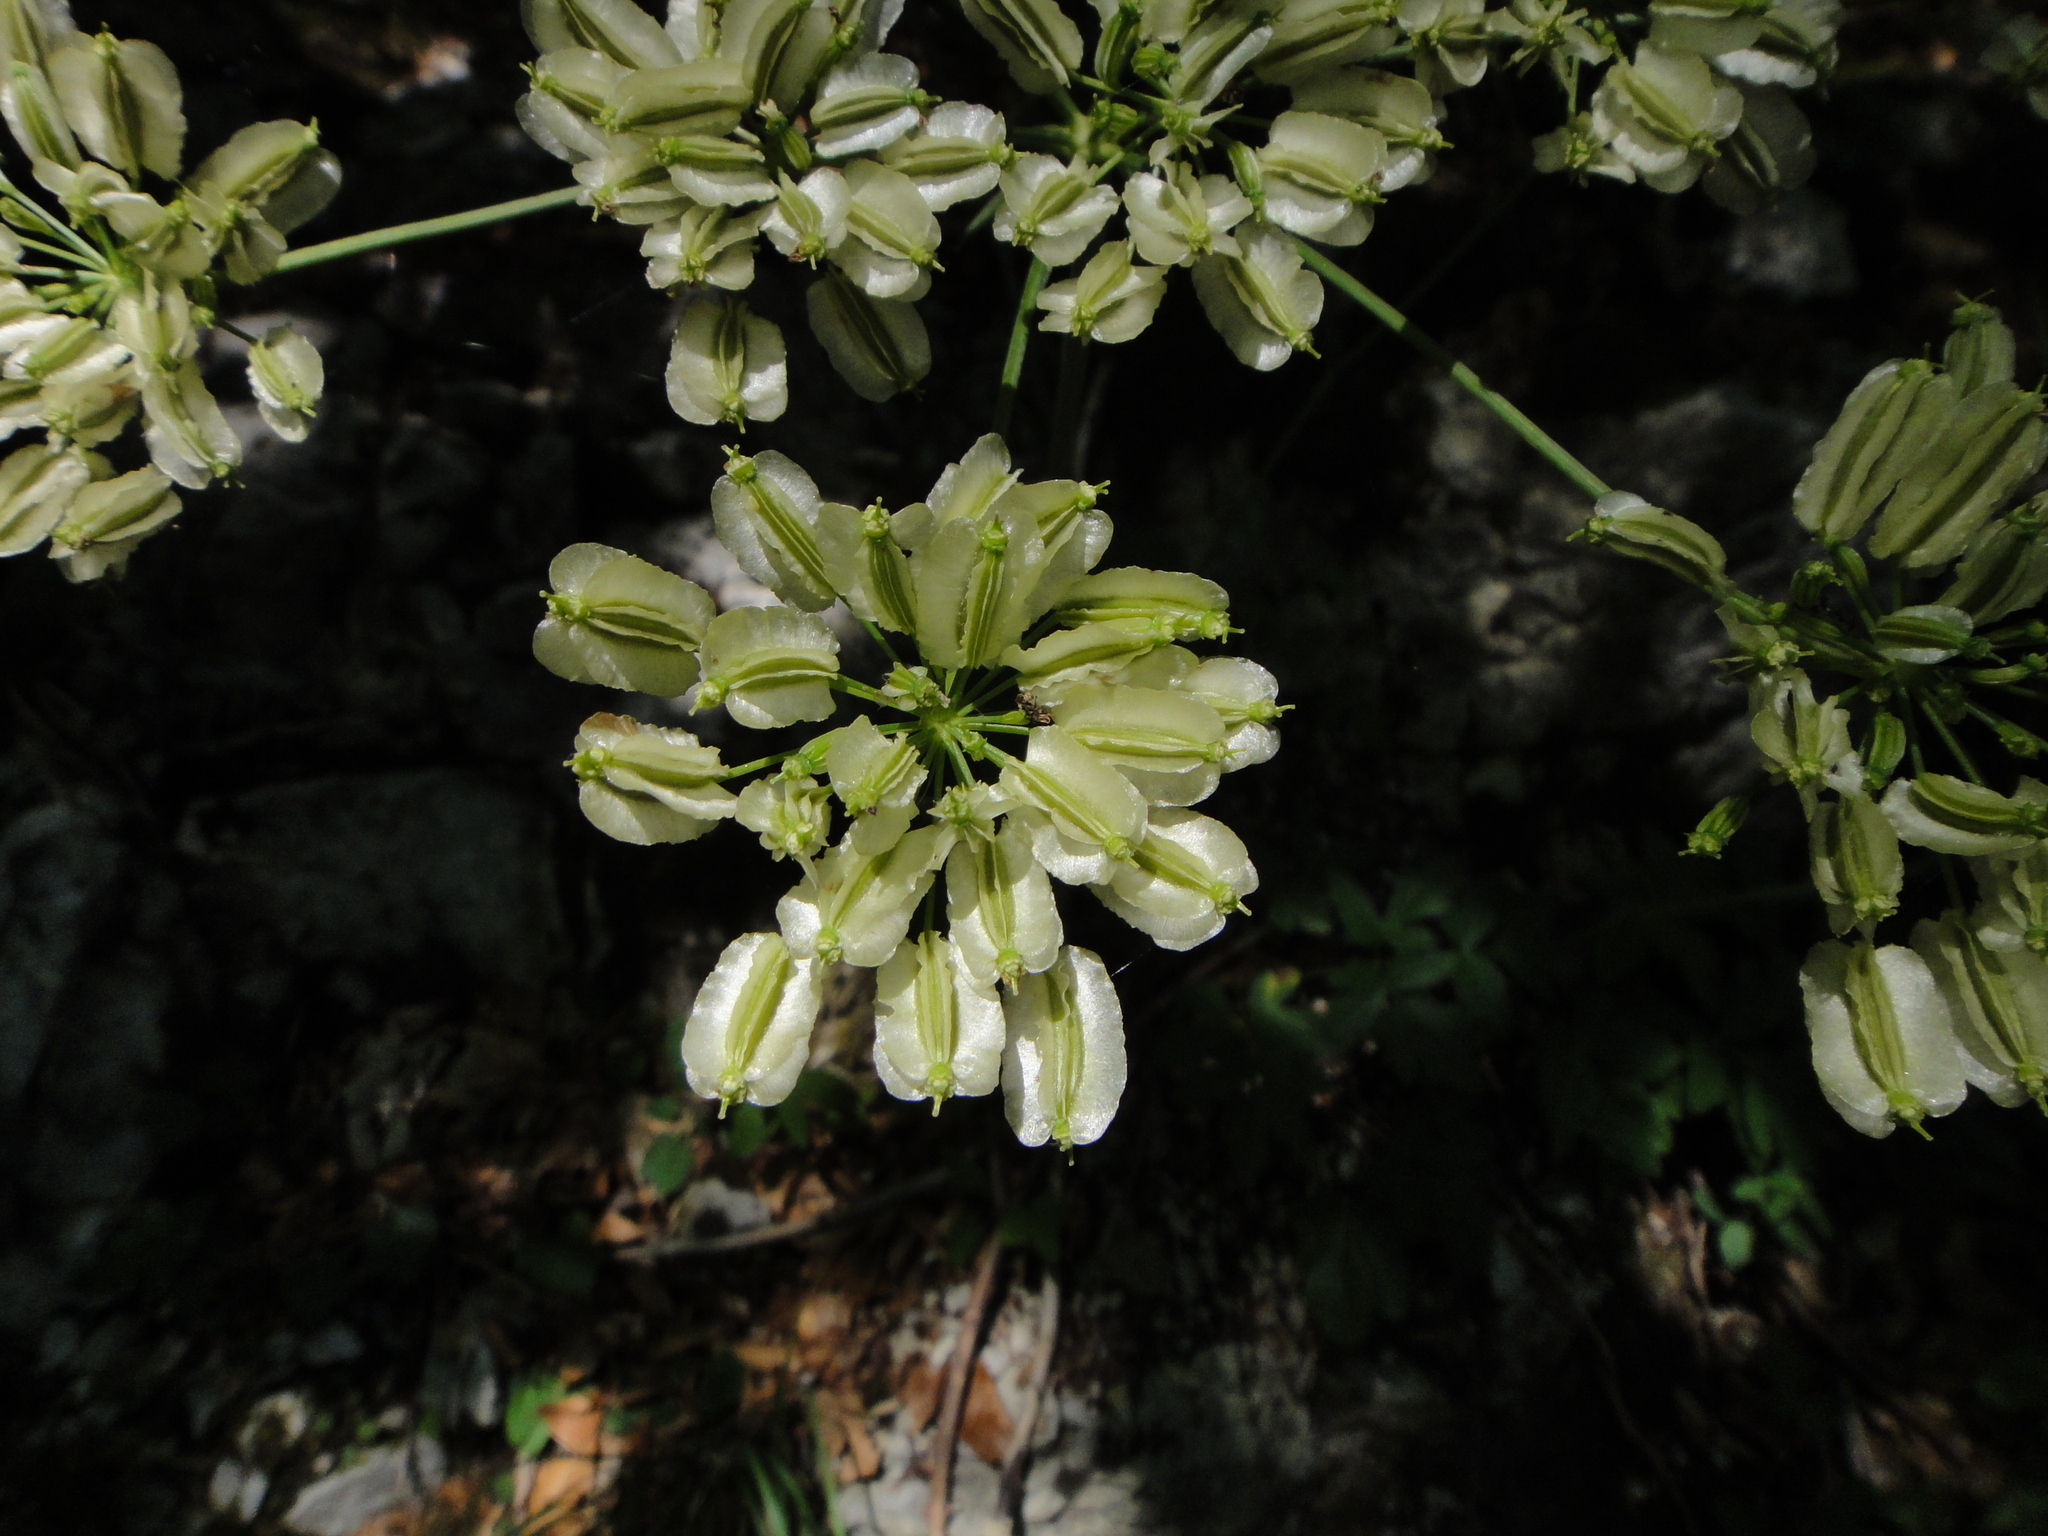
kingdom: Plantae
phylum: Tracheophyta
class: Magnoliopsida
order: Apiales
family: Apiaceae
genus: Laserpitium
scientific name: Laserpitium krapffii
